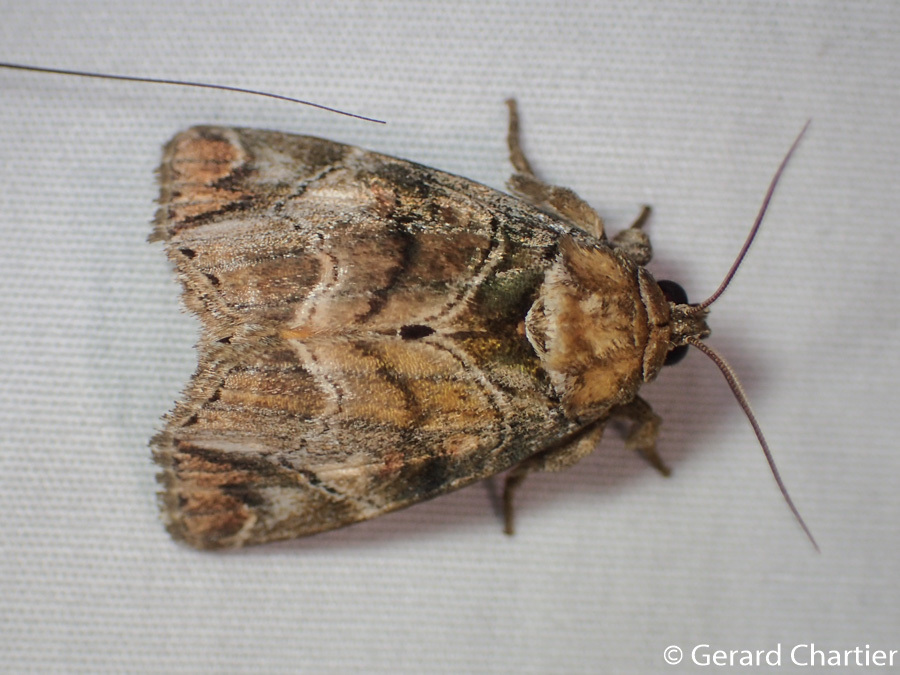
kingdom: Animalia
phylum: Arthropoda
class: Insecta
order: Lepidoptera
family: Noctuidae
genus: Antitrisuloides
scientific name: Antitrisuloides catocalina
